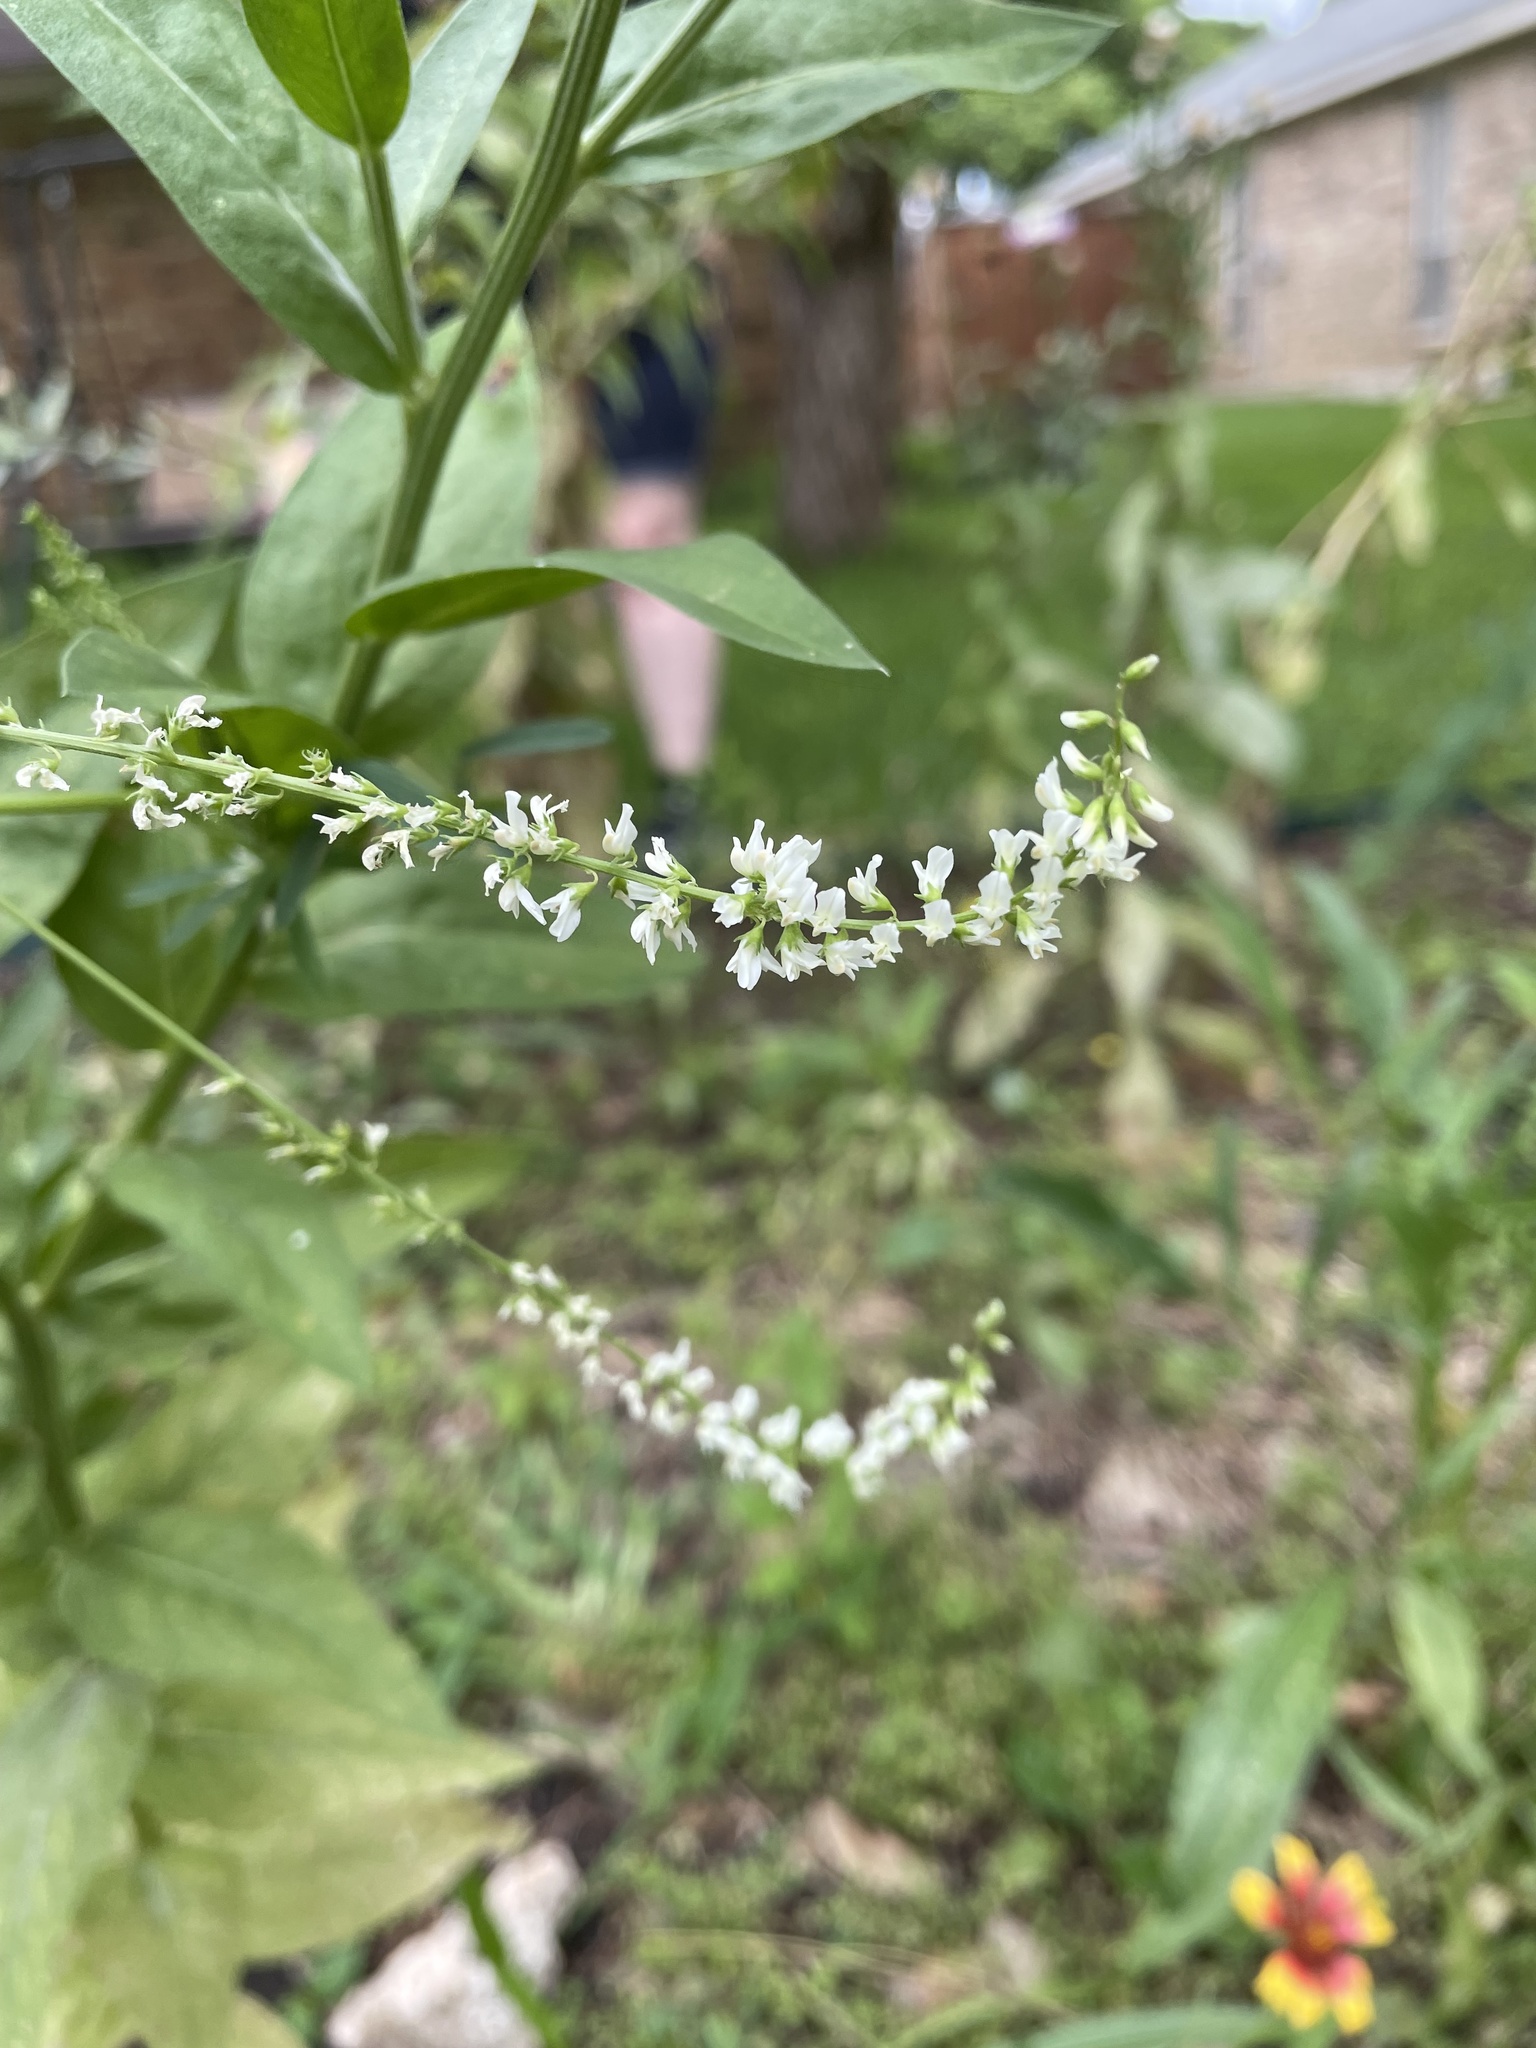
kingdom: Plantae
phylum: Tracheophyta
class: Magnoliopsida
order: Fabales
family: Fabaceae
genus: Melilotus
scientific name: Melilotus albus
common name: White melilot
